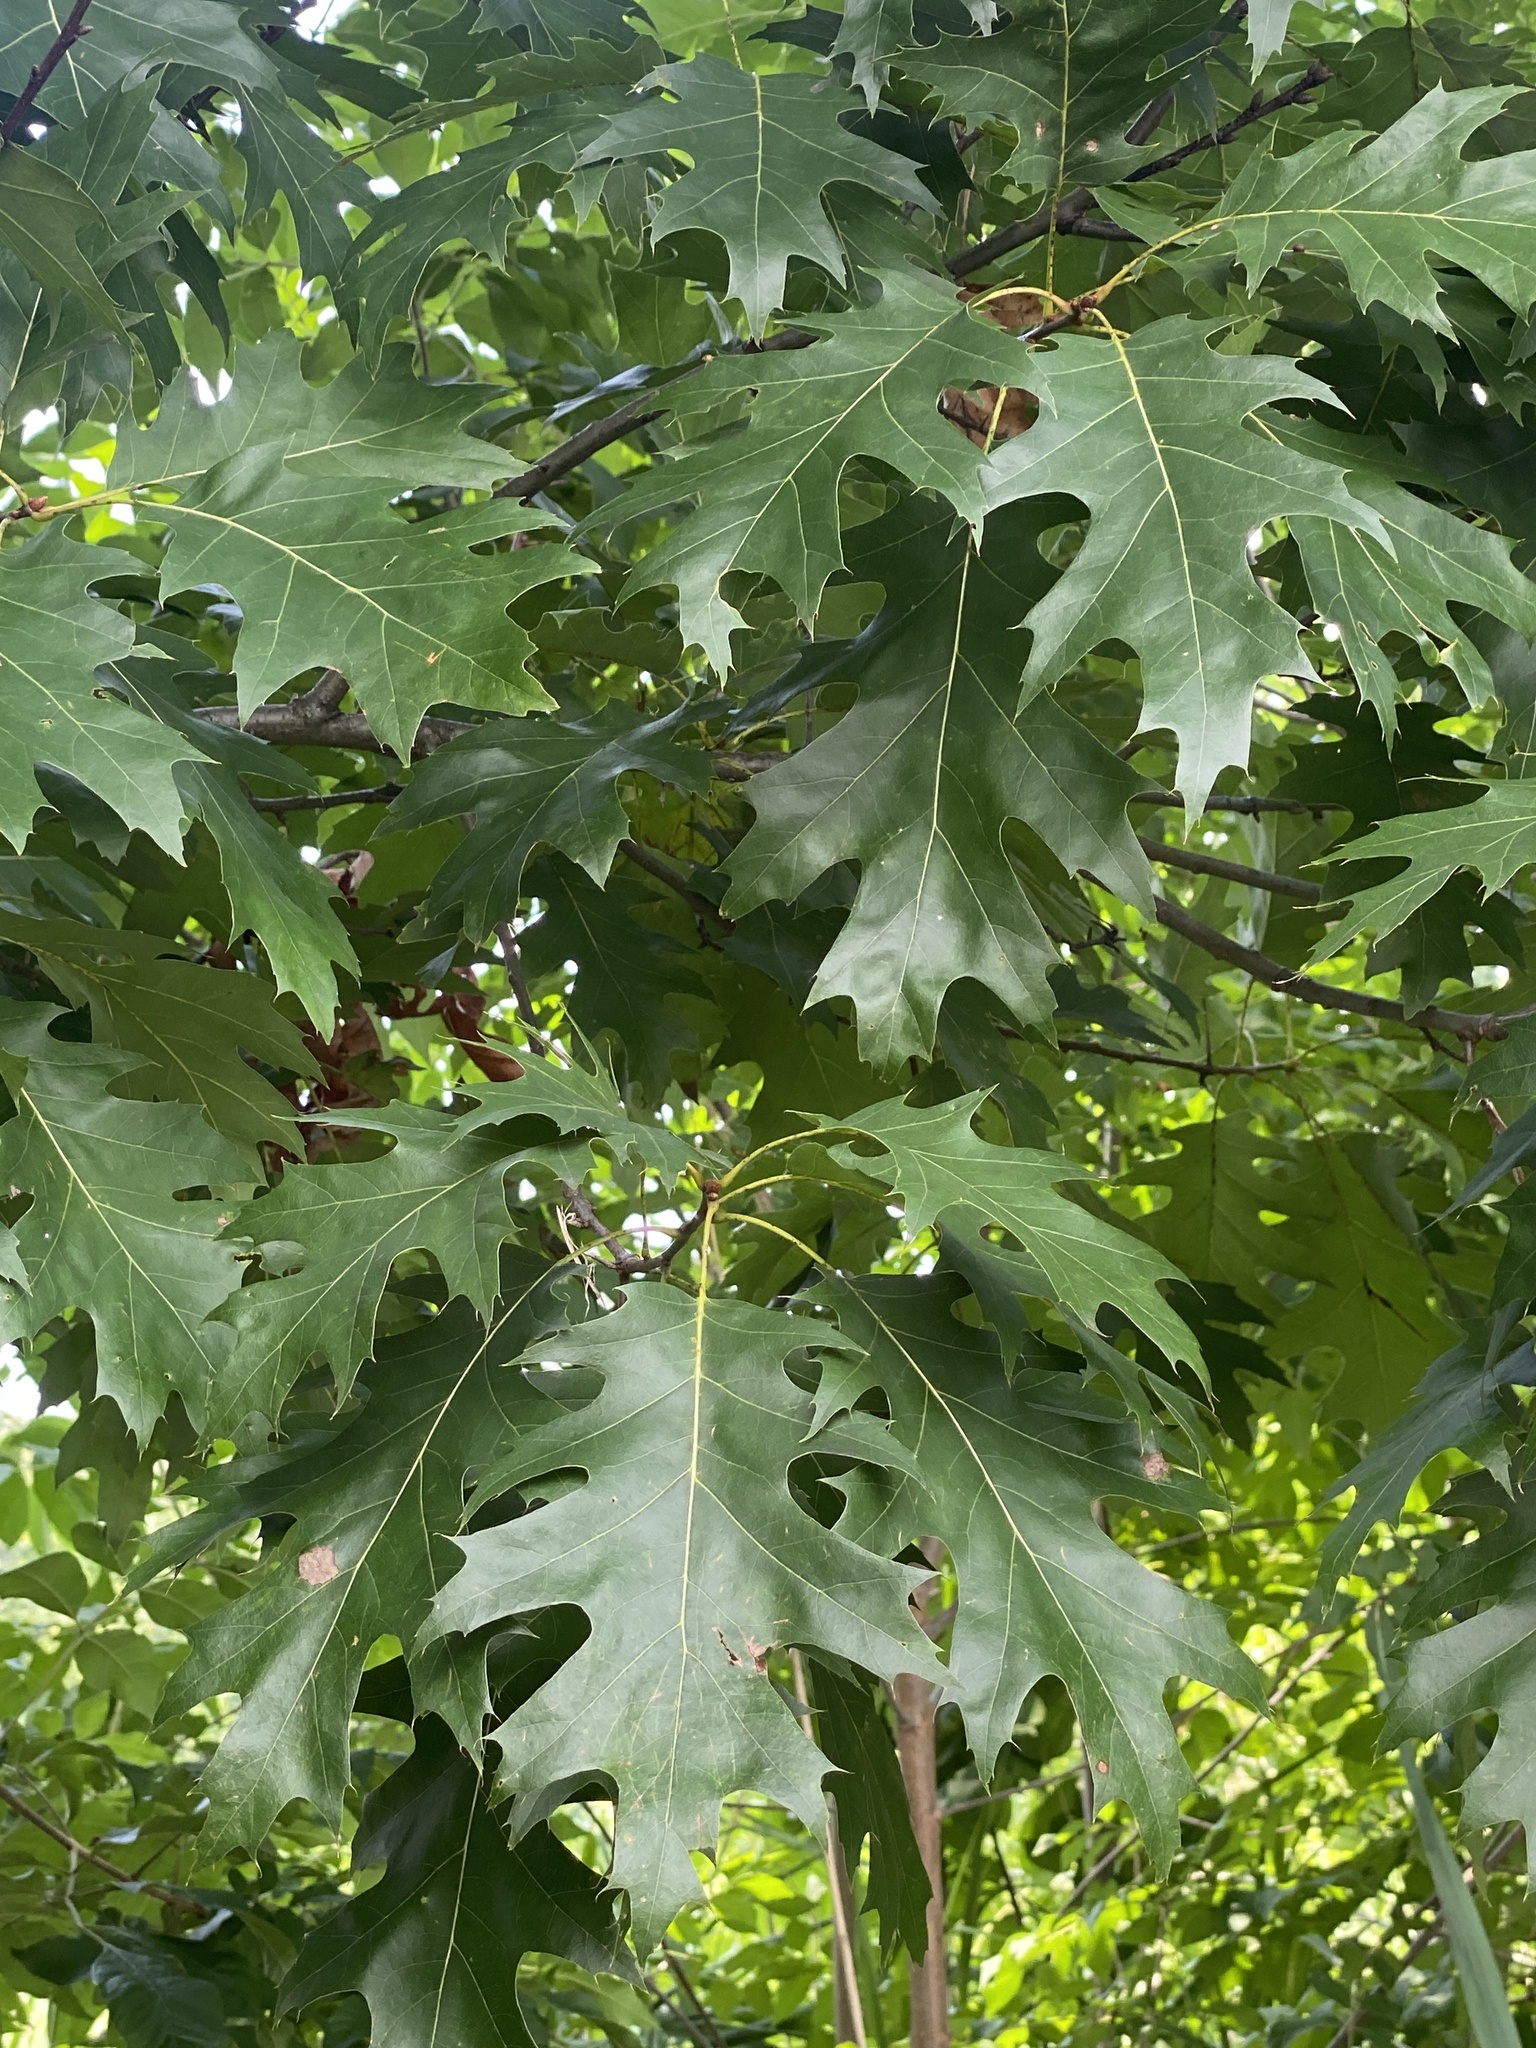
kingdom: Plantae
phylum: Tracheophyta
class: Magnoliopsida
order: Fagales
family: Fagaceae
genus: Quercus
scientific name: Quercus rubra
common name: Red oak
